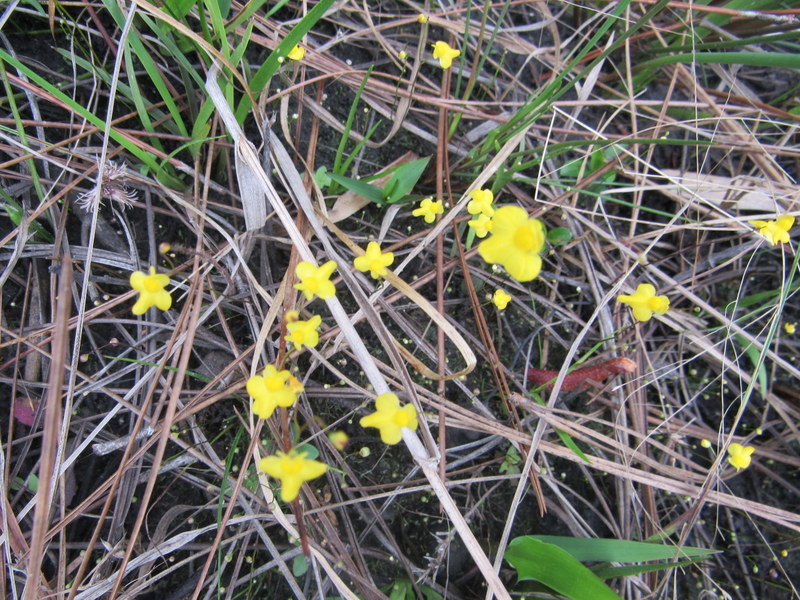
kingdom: Plantae
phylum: Tracheophyta
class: Magnoliopsida
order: Lamiales
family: Lentibulariaceae
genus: Utricularia
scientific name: Utricularia subulata
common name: Tiny bladderwort
